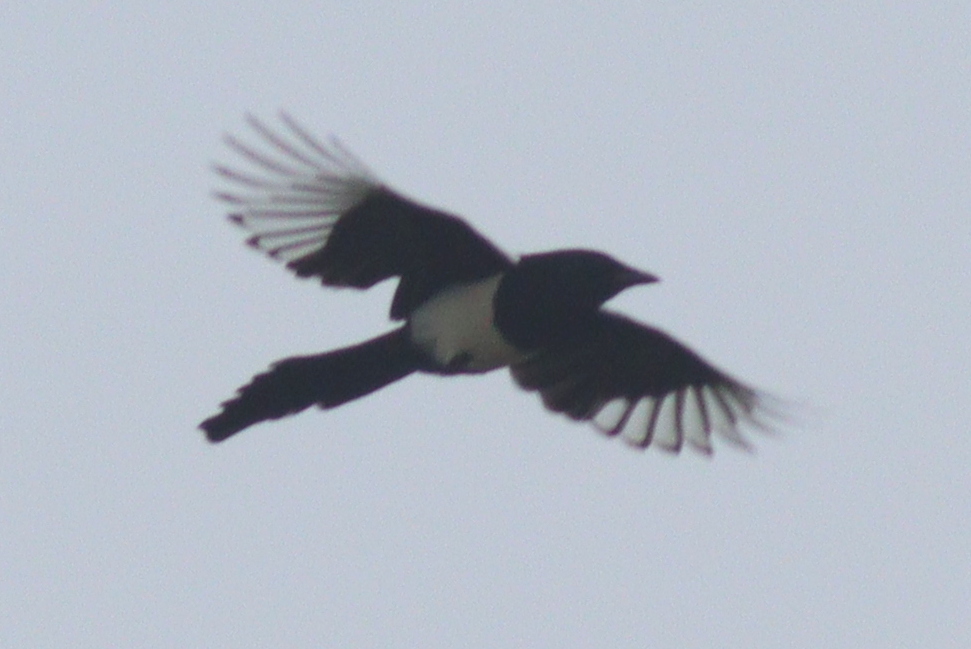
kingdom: Animalia
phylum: Chordata
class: Aves
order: Passeriformes
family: Corvidae
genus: Pica
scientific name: Pica pica
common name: Eurasian magpie
